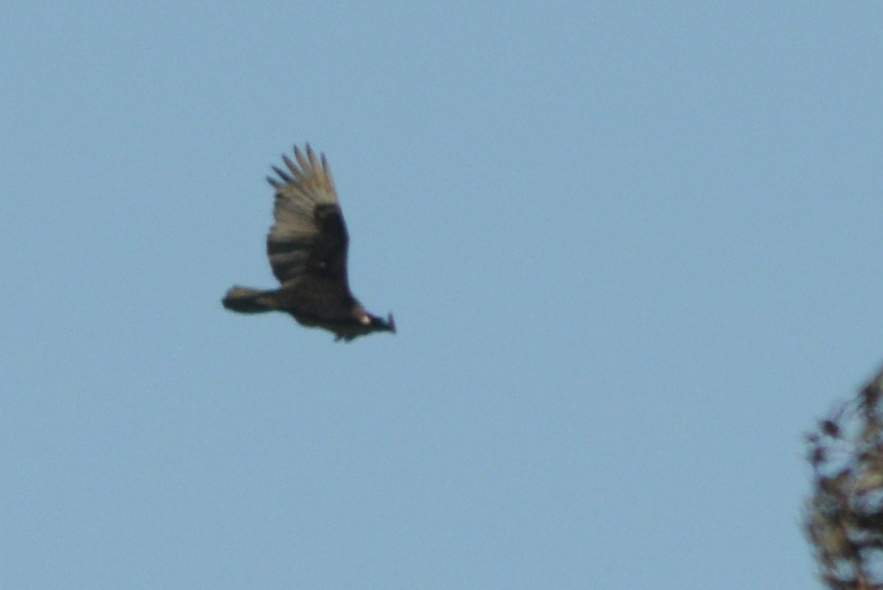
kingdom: Animalia
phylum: Chordata
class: Aves
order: Accipitriformes
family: Cathartidae
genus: Cathartes
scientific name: Cathartes aura
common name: Turkey vulture
